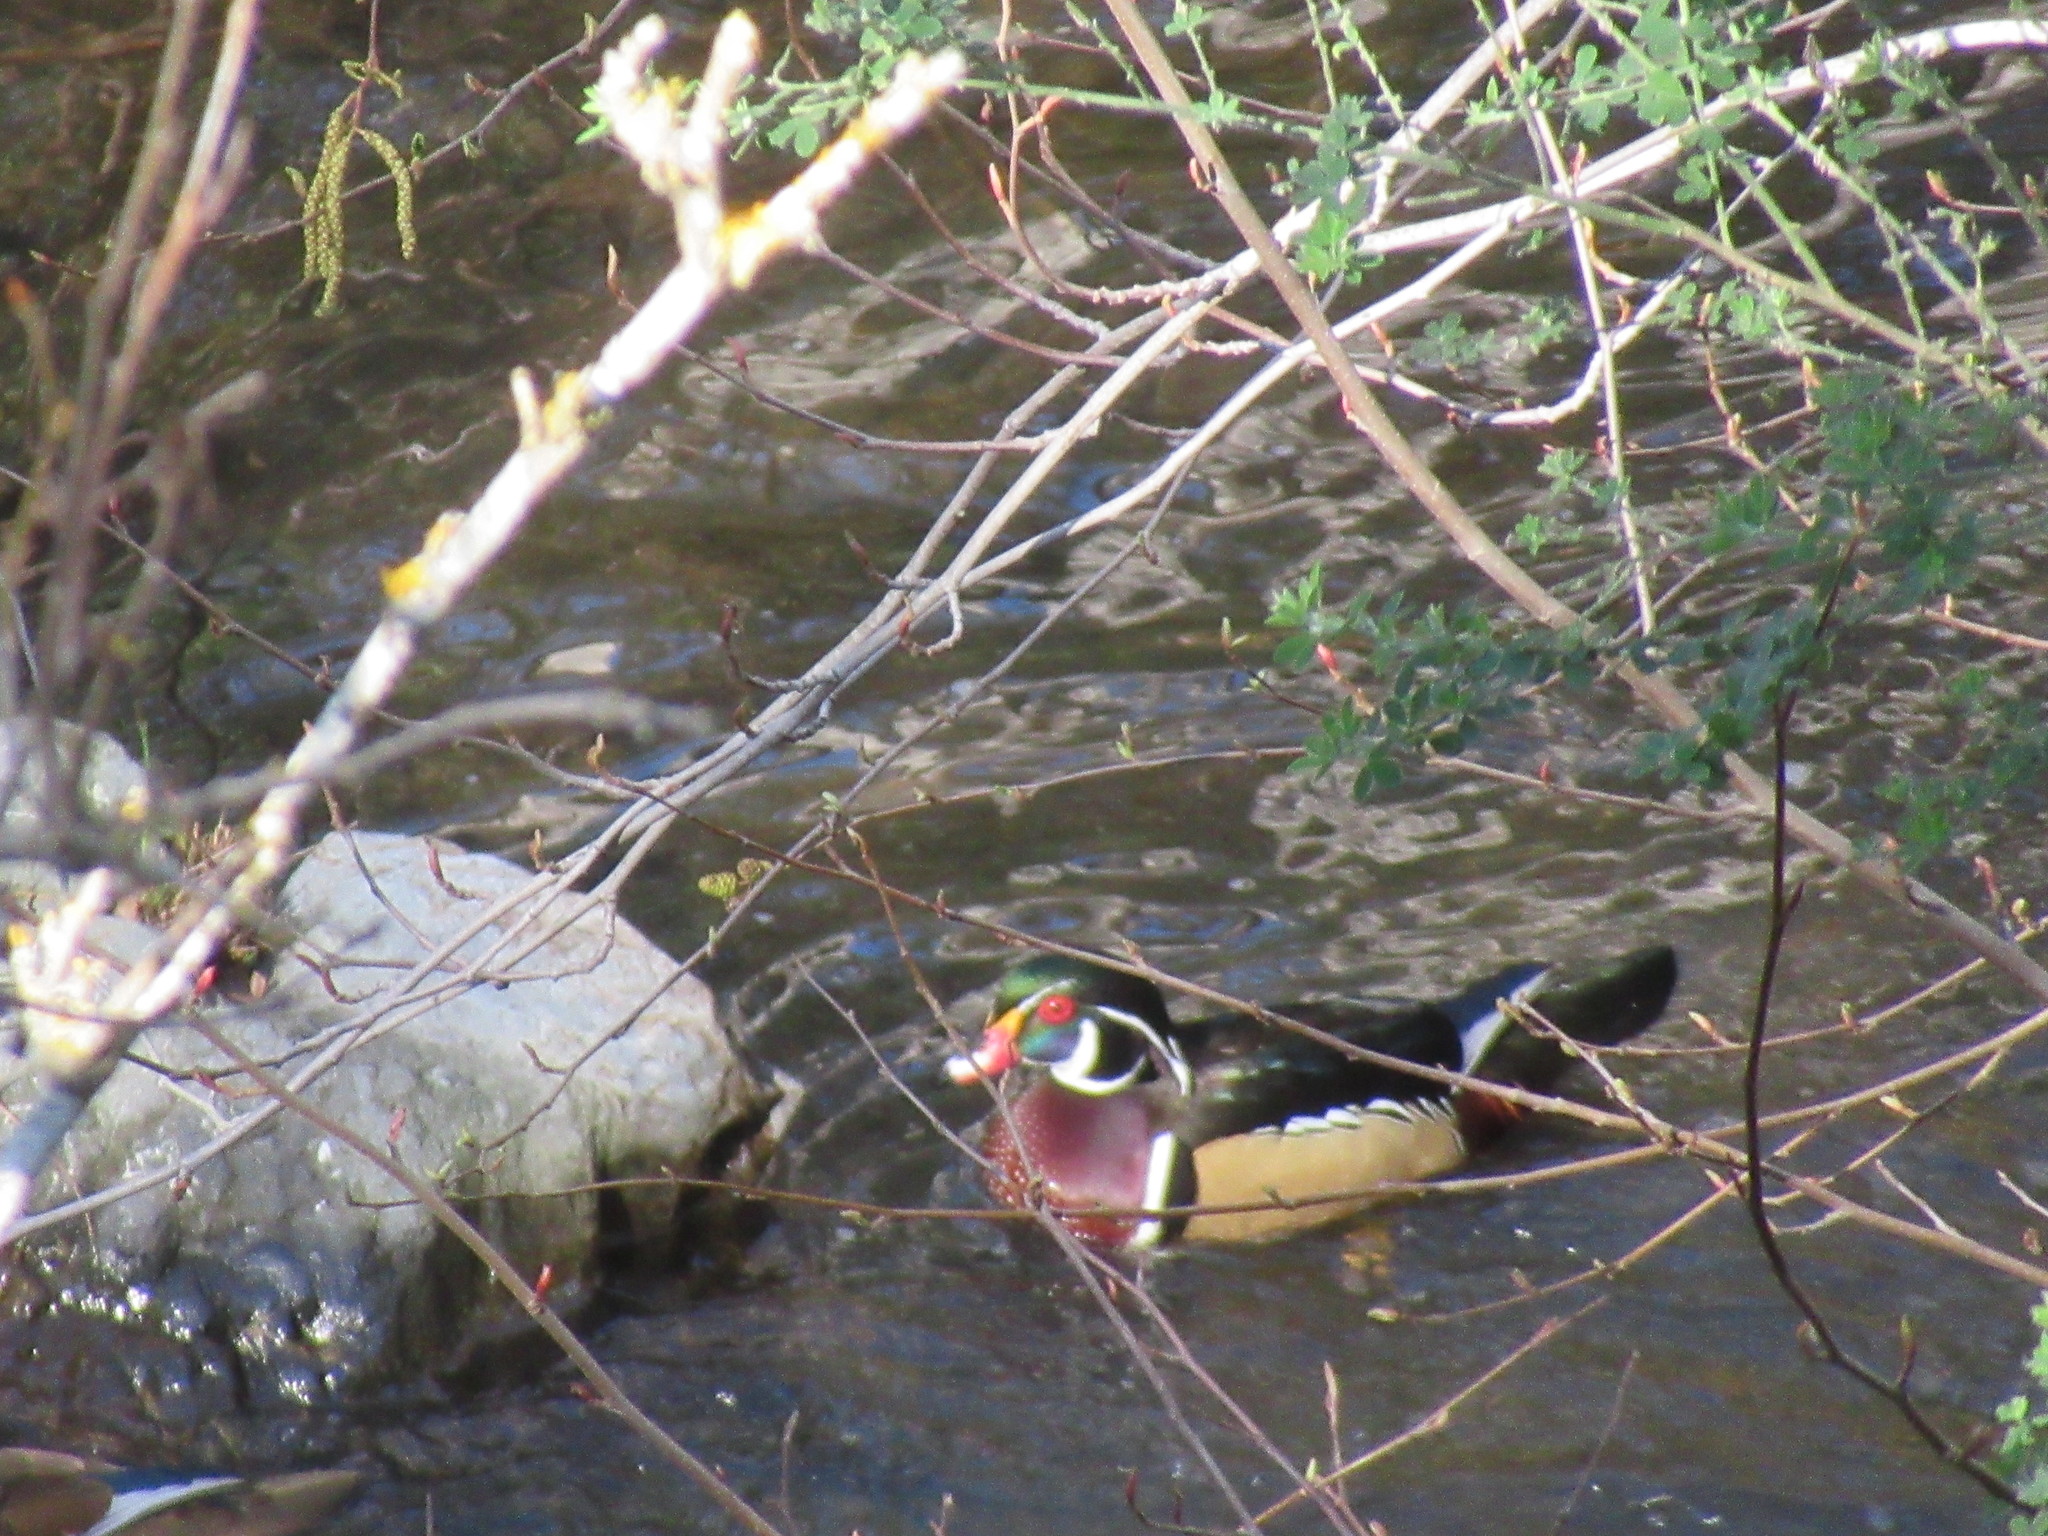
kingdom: Animalia
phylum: Chordata
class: Aves
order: Anseriformes
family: Anatidae
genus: Aix
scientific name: Aix sponsa
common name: Wood duck
